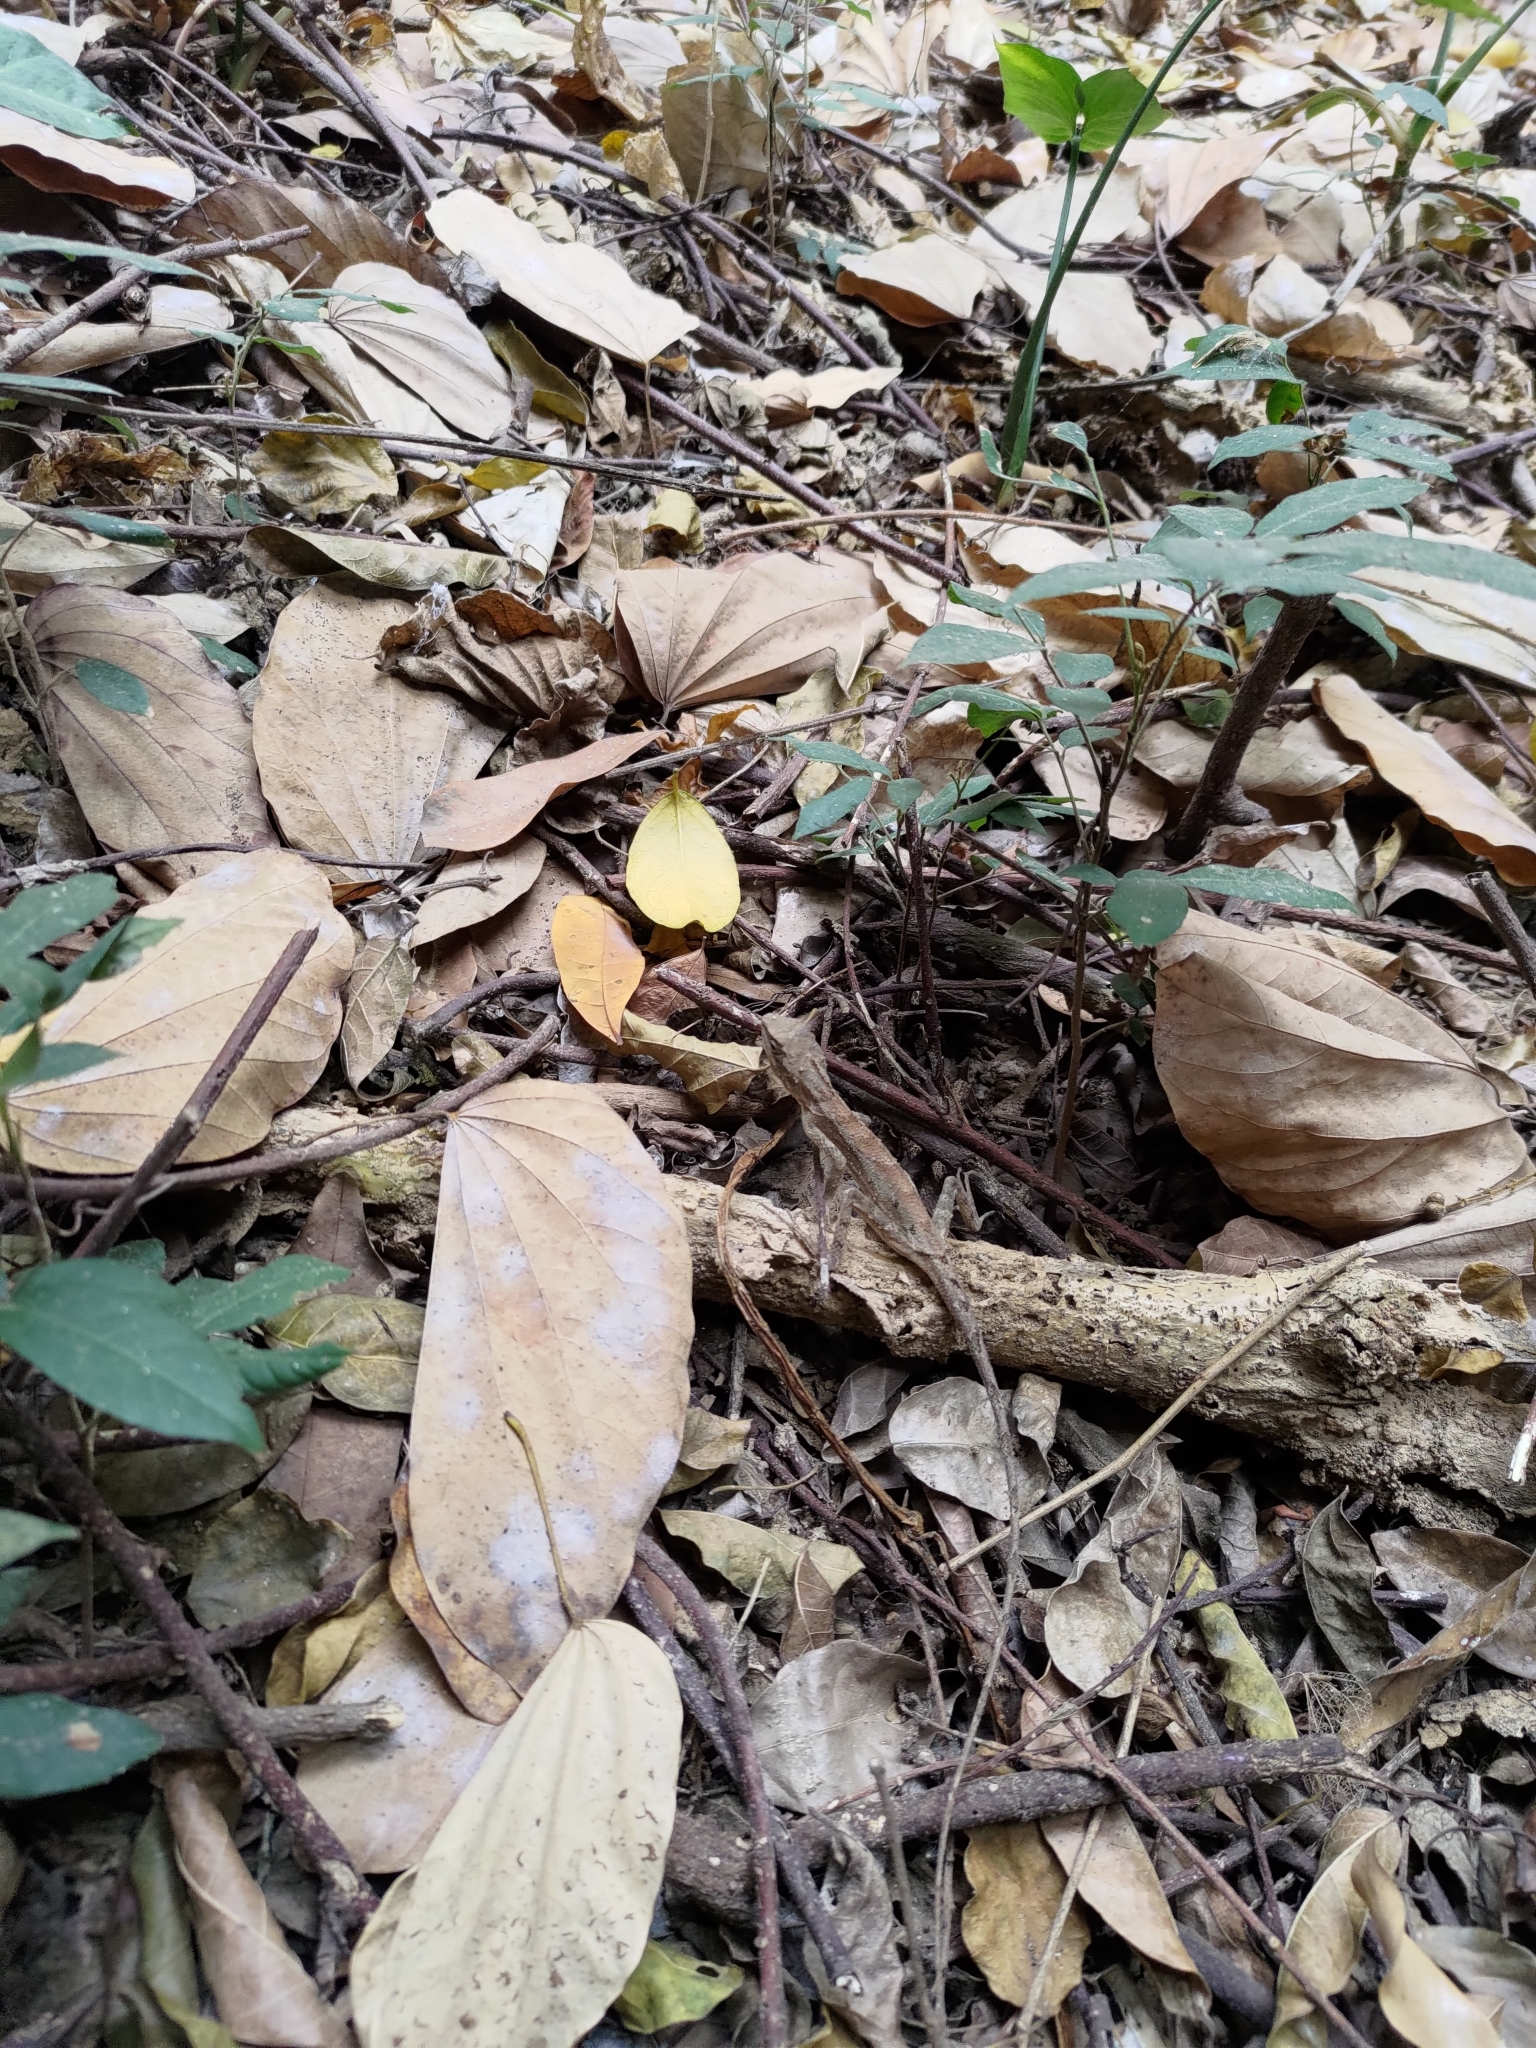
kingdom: Animalia
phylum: Chordata
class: Squamata
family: Agamidae
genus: Diploderma
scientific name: Diploderma swinhonis
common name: Taiwan japalure
